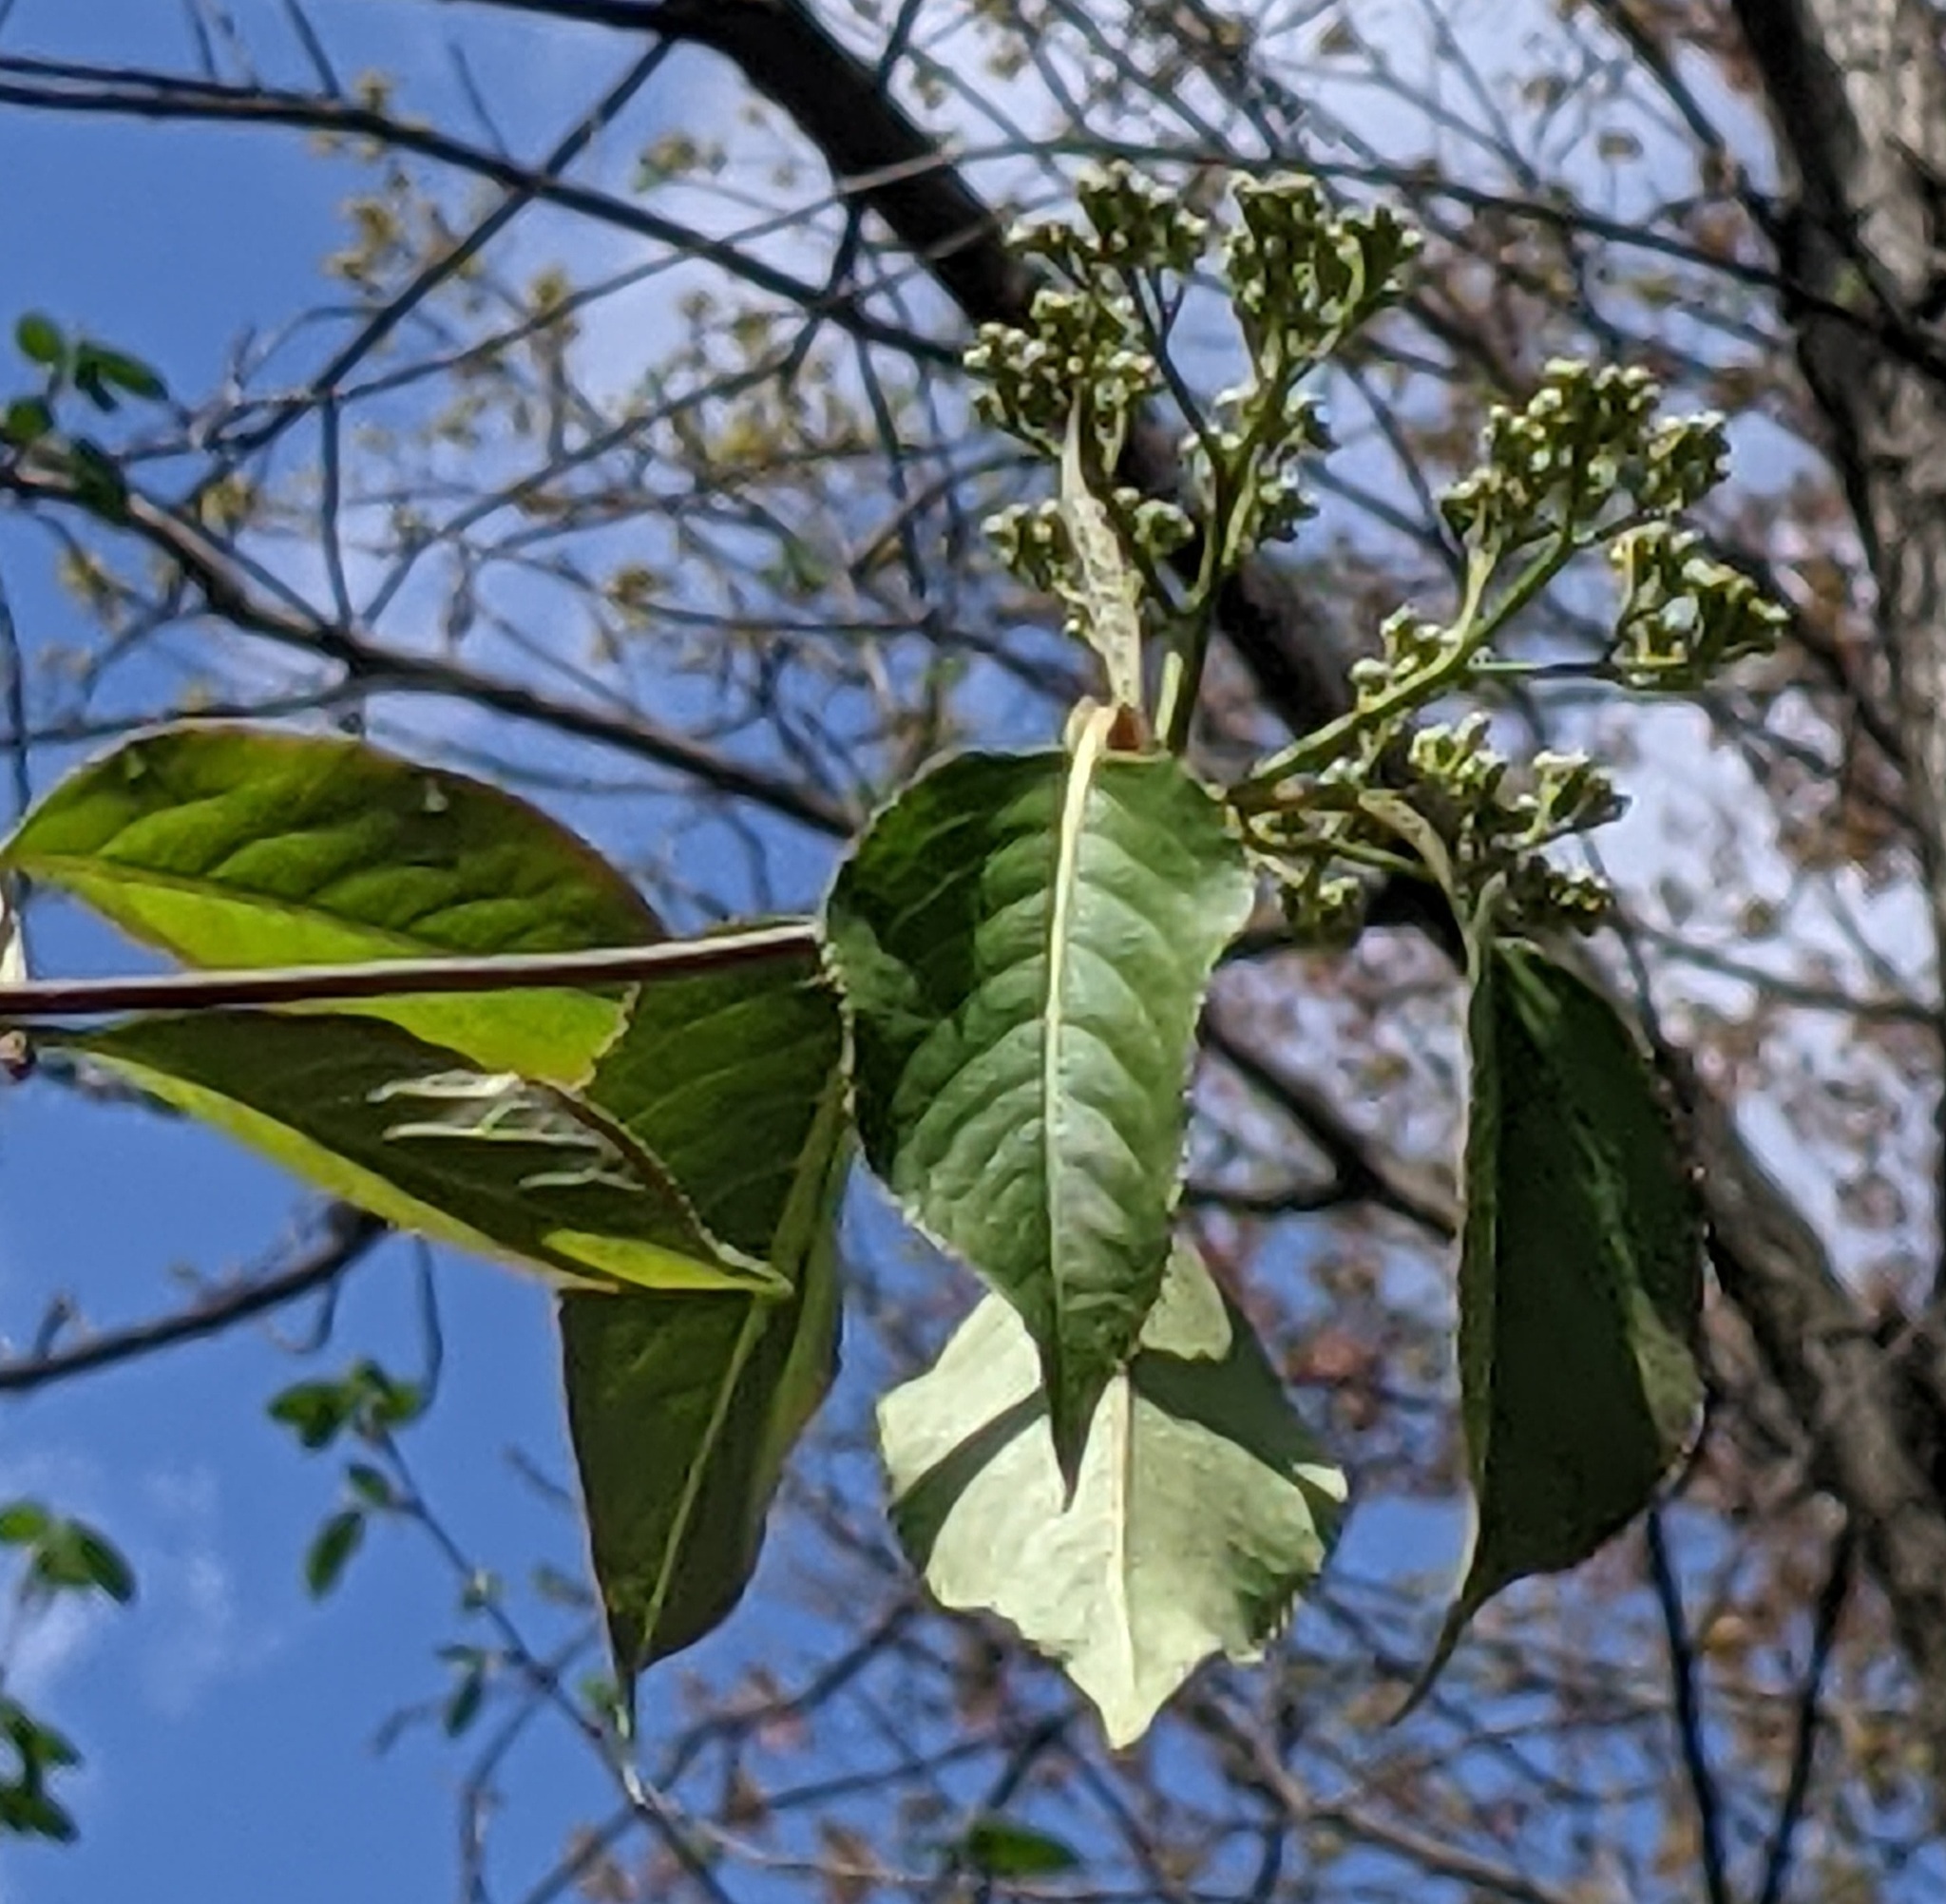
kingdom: Plantae
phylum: Tracheophyta
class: Magnoliopsida
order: Dipsacales
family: Viburnaceae
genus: Viburnum
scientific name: Viburnum lentago
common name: Black haw
